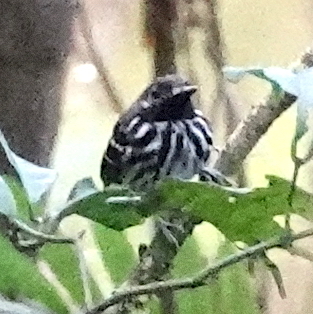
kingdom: Animalia
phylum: Chordata
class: Aves
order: Passeriformes
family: Thamnophilidae
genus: Hylophylax
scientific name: Hylophylax punctulatus
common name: Dot-backed antbird
